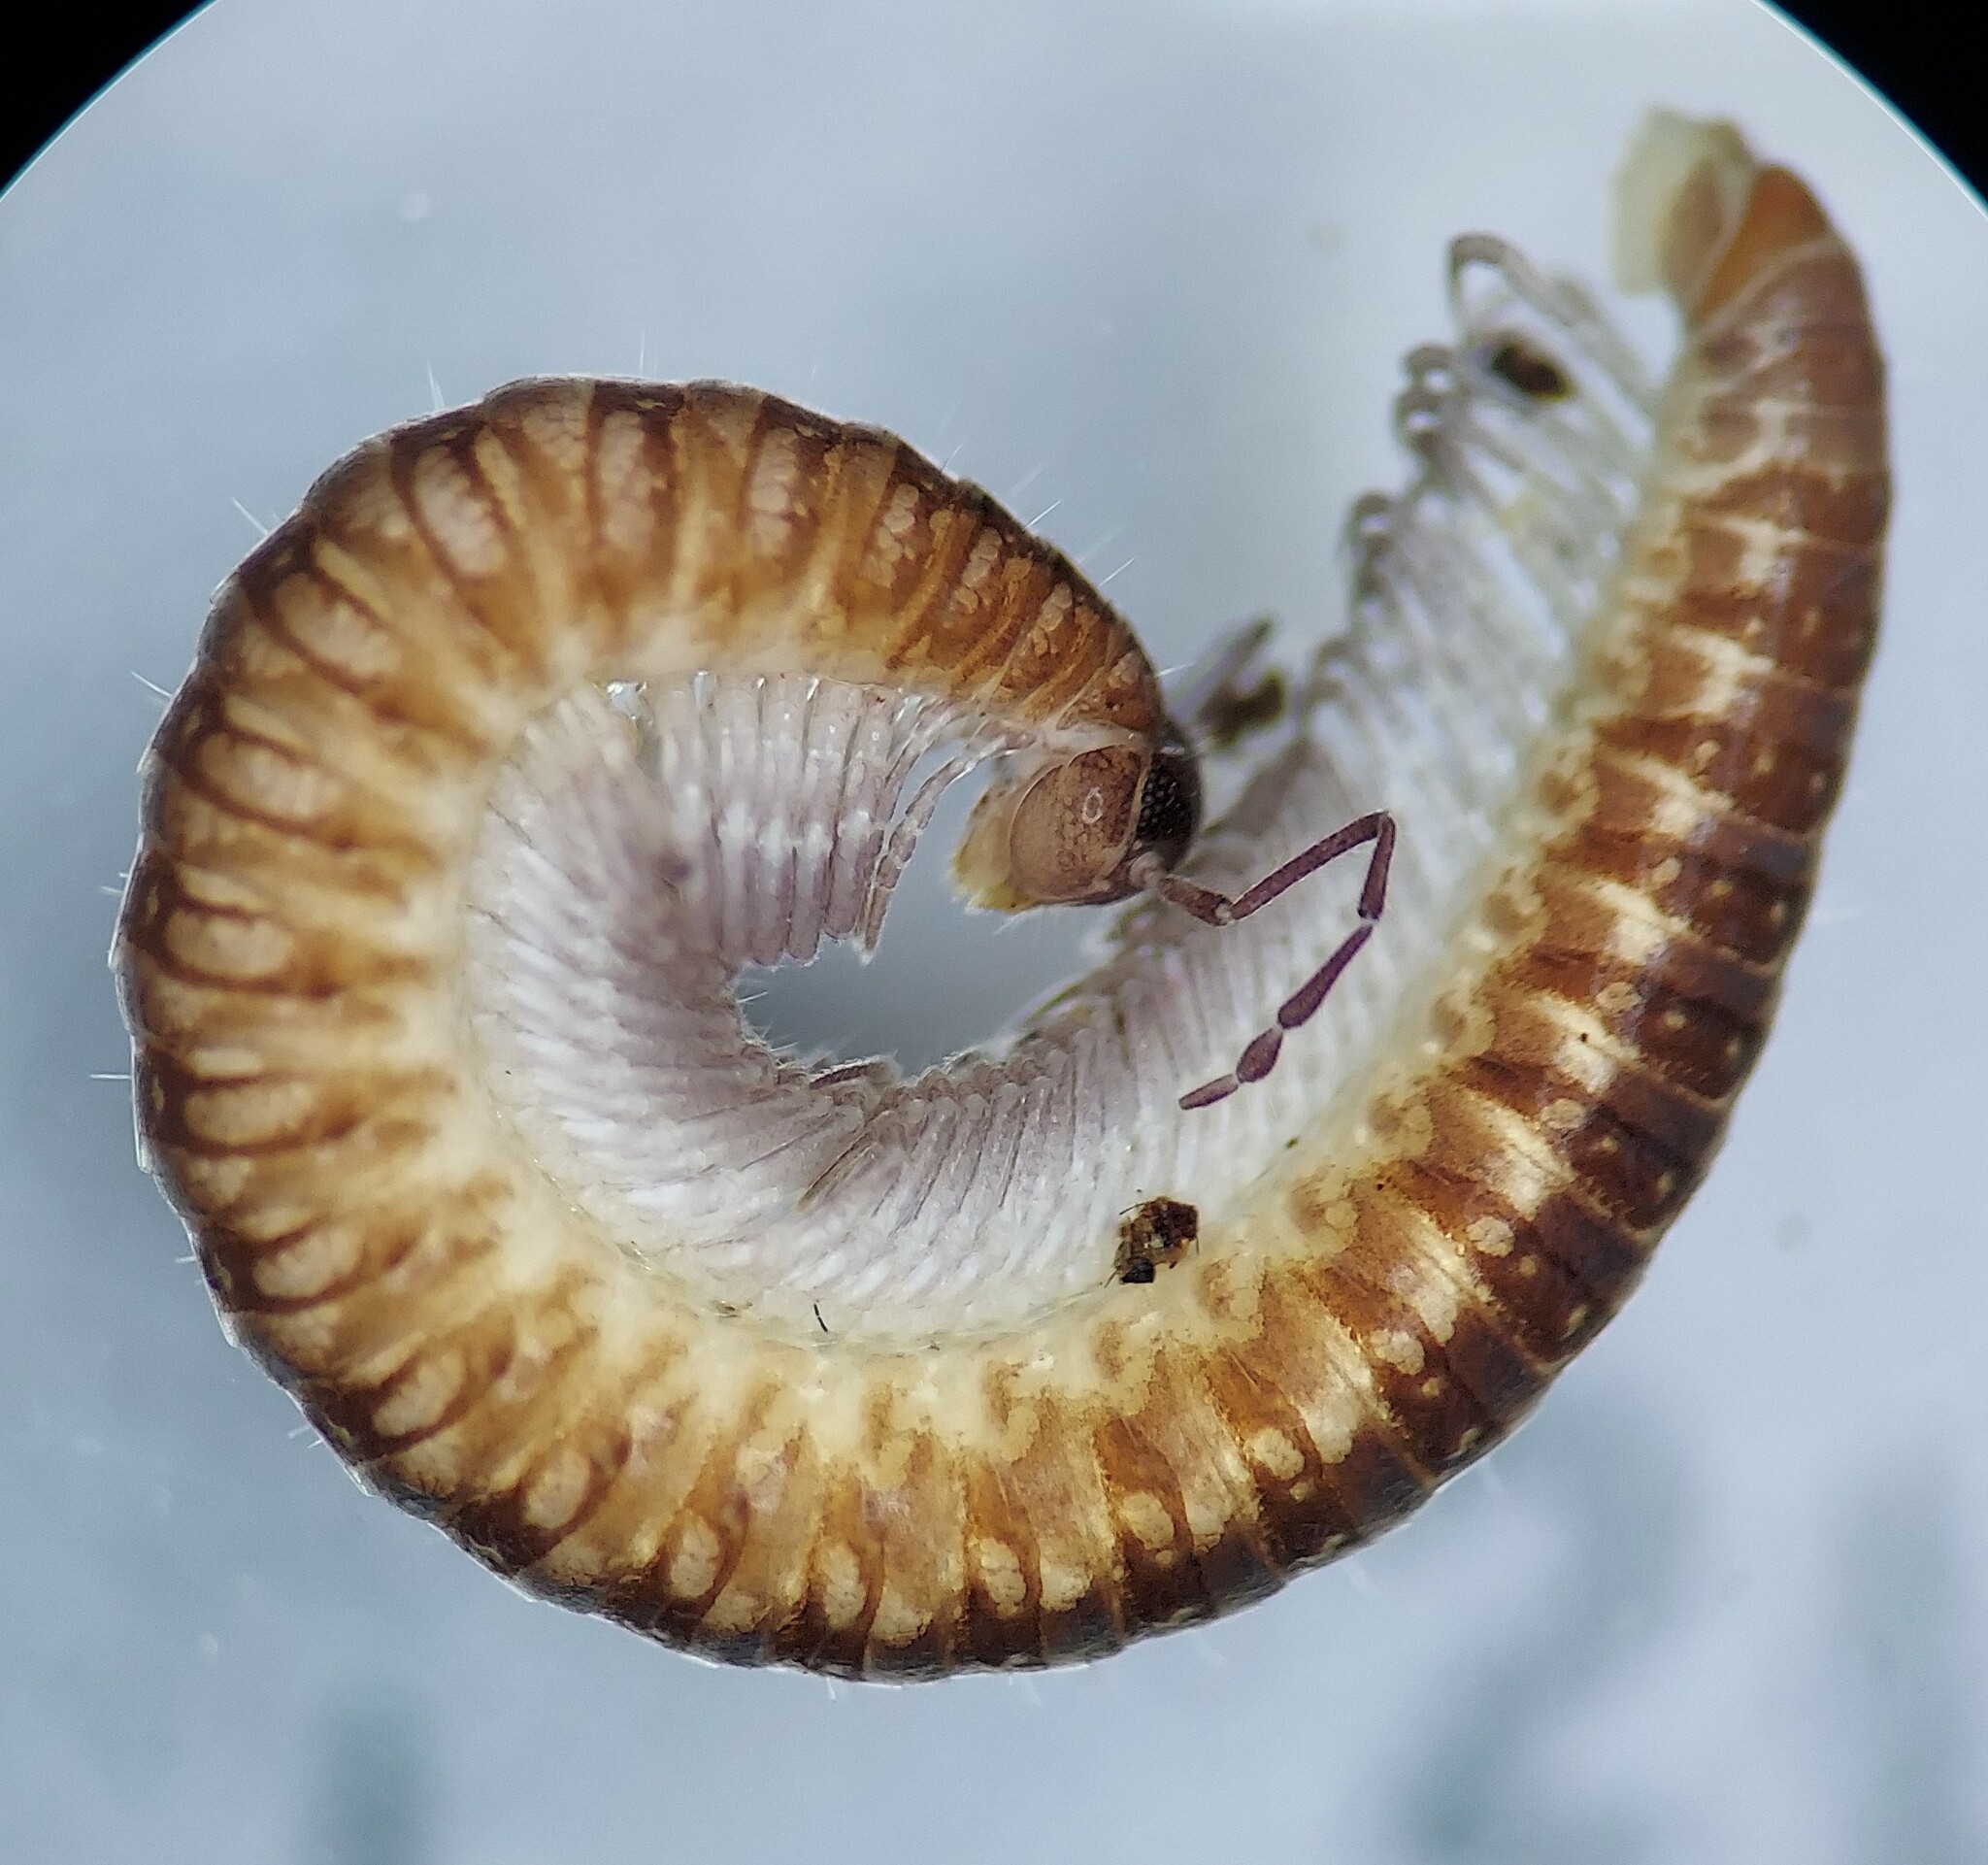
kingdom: Animalia
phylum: Arthropoda
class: Diplopoda
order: Chordeumatida
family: Cleidogonidae
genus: Cleidogona
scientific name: Cleidogona fustis
